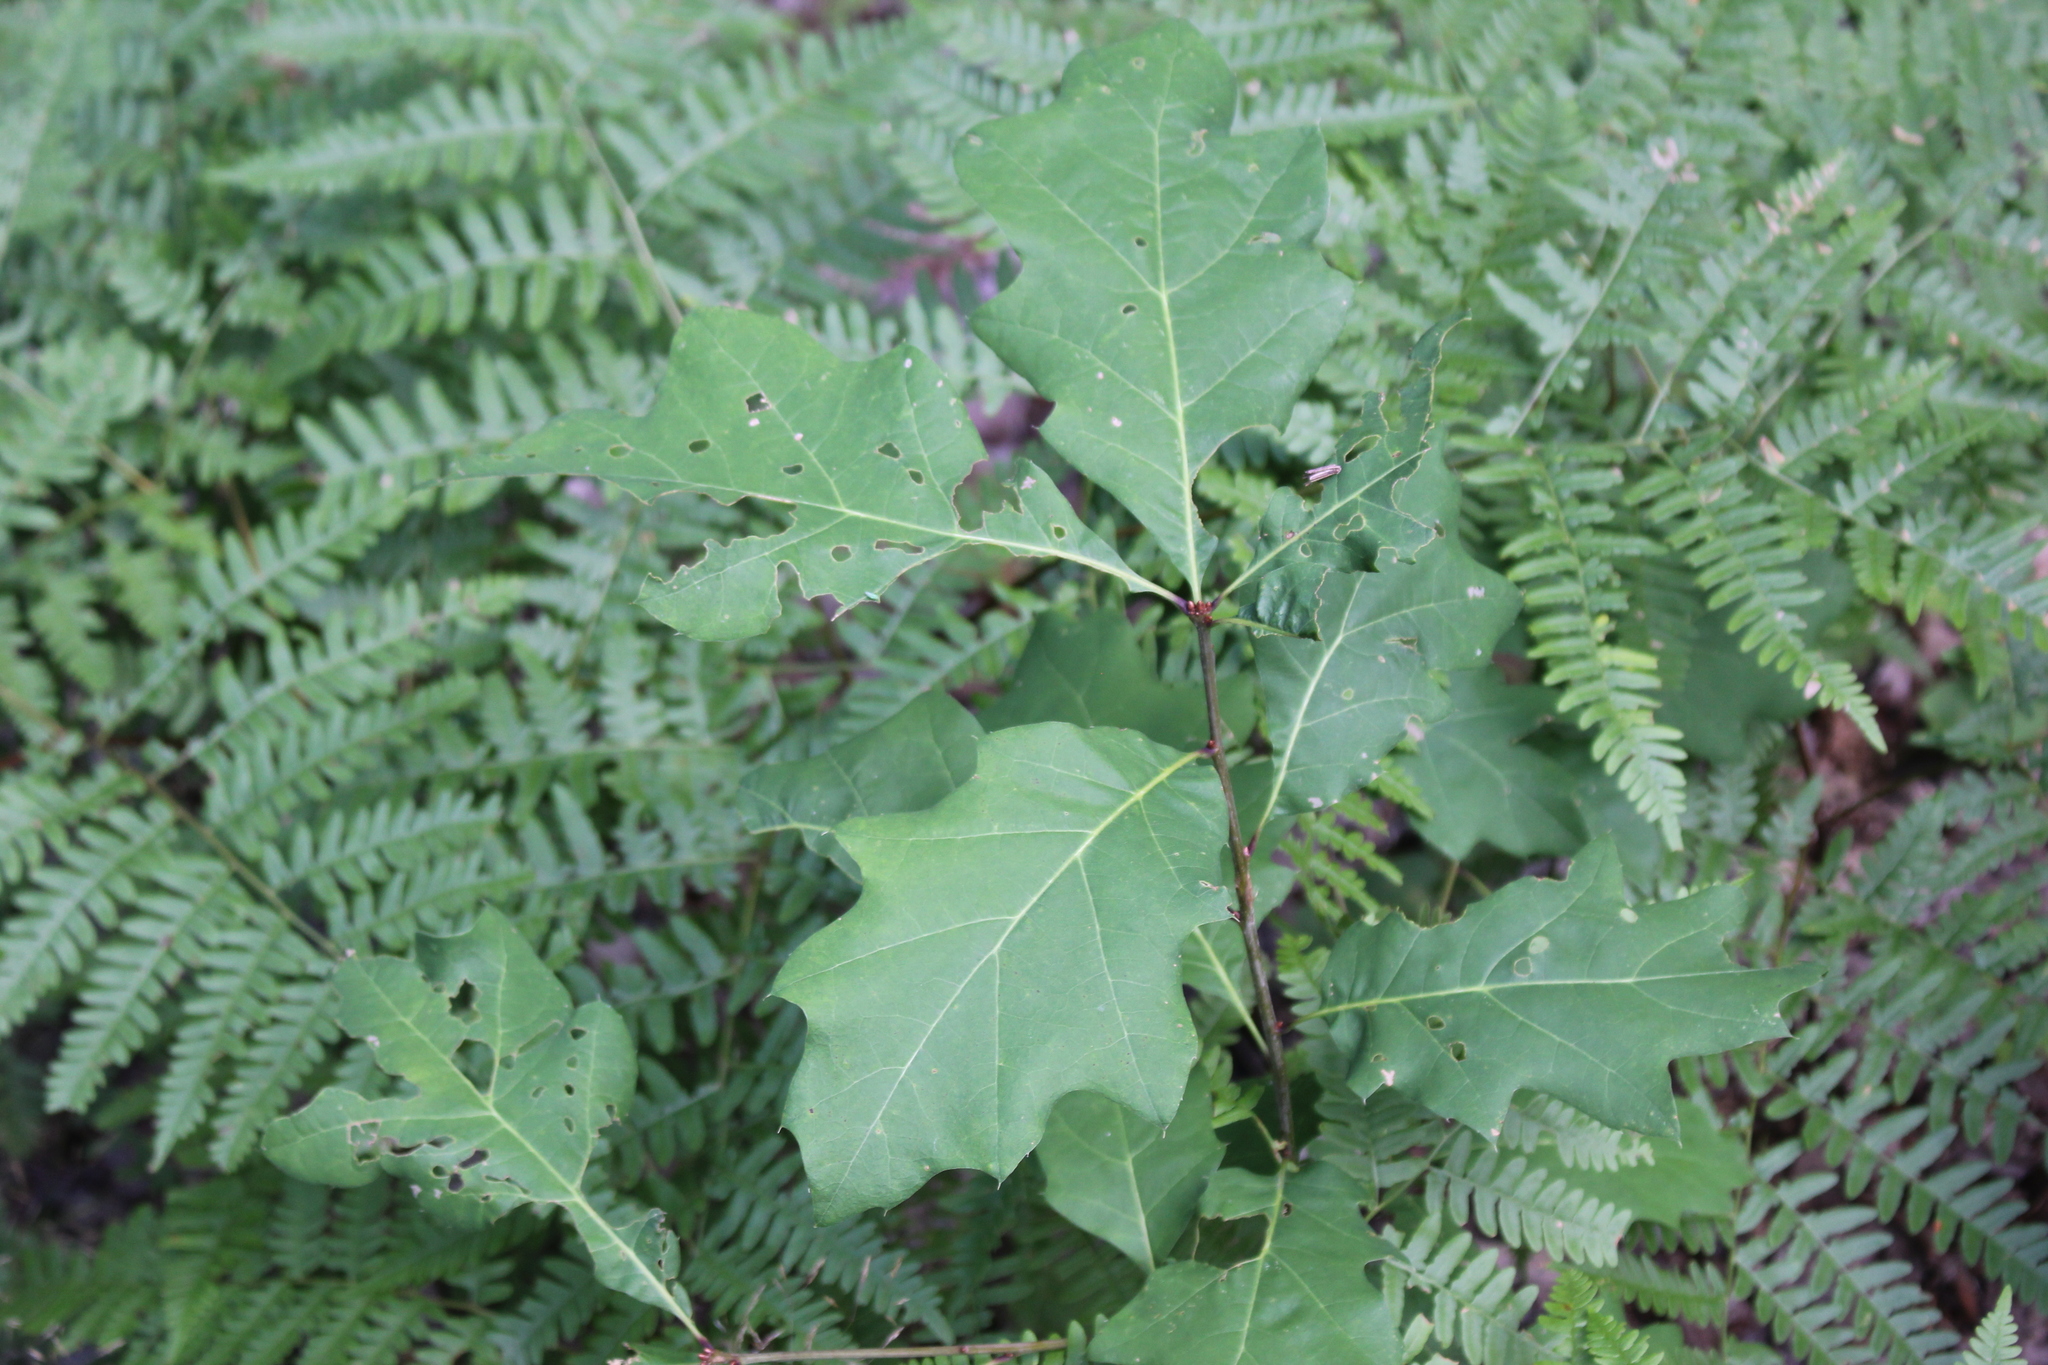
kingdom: Plantae
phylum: Tracheophyta
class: Magnoliopsida
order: Fagales
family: Fagaceae
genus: Quercus
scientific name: Quercus rubra
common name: Red oak
